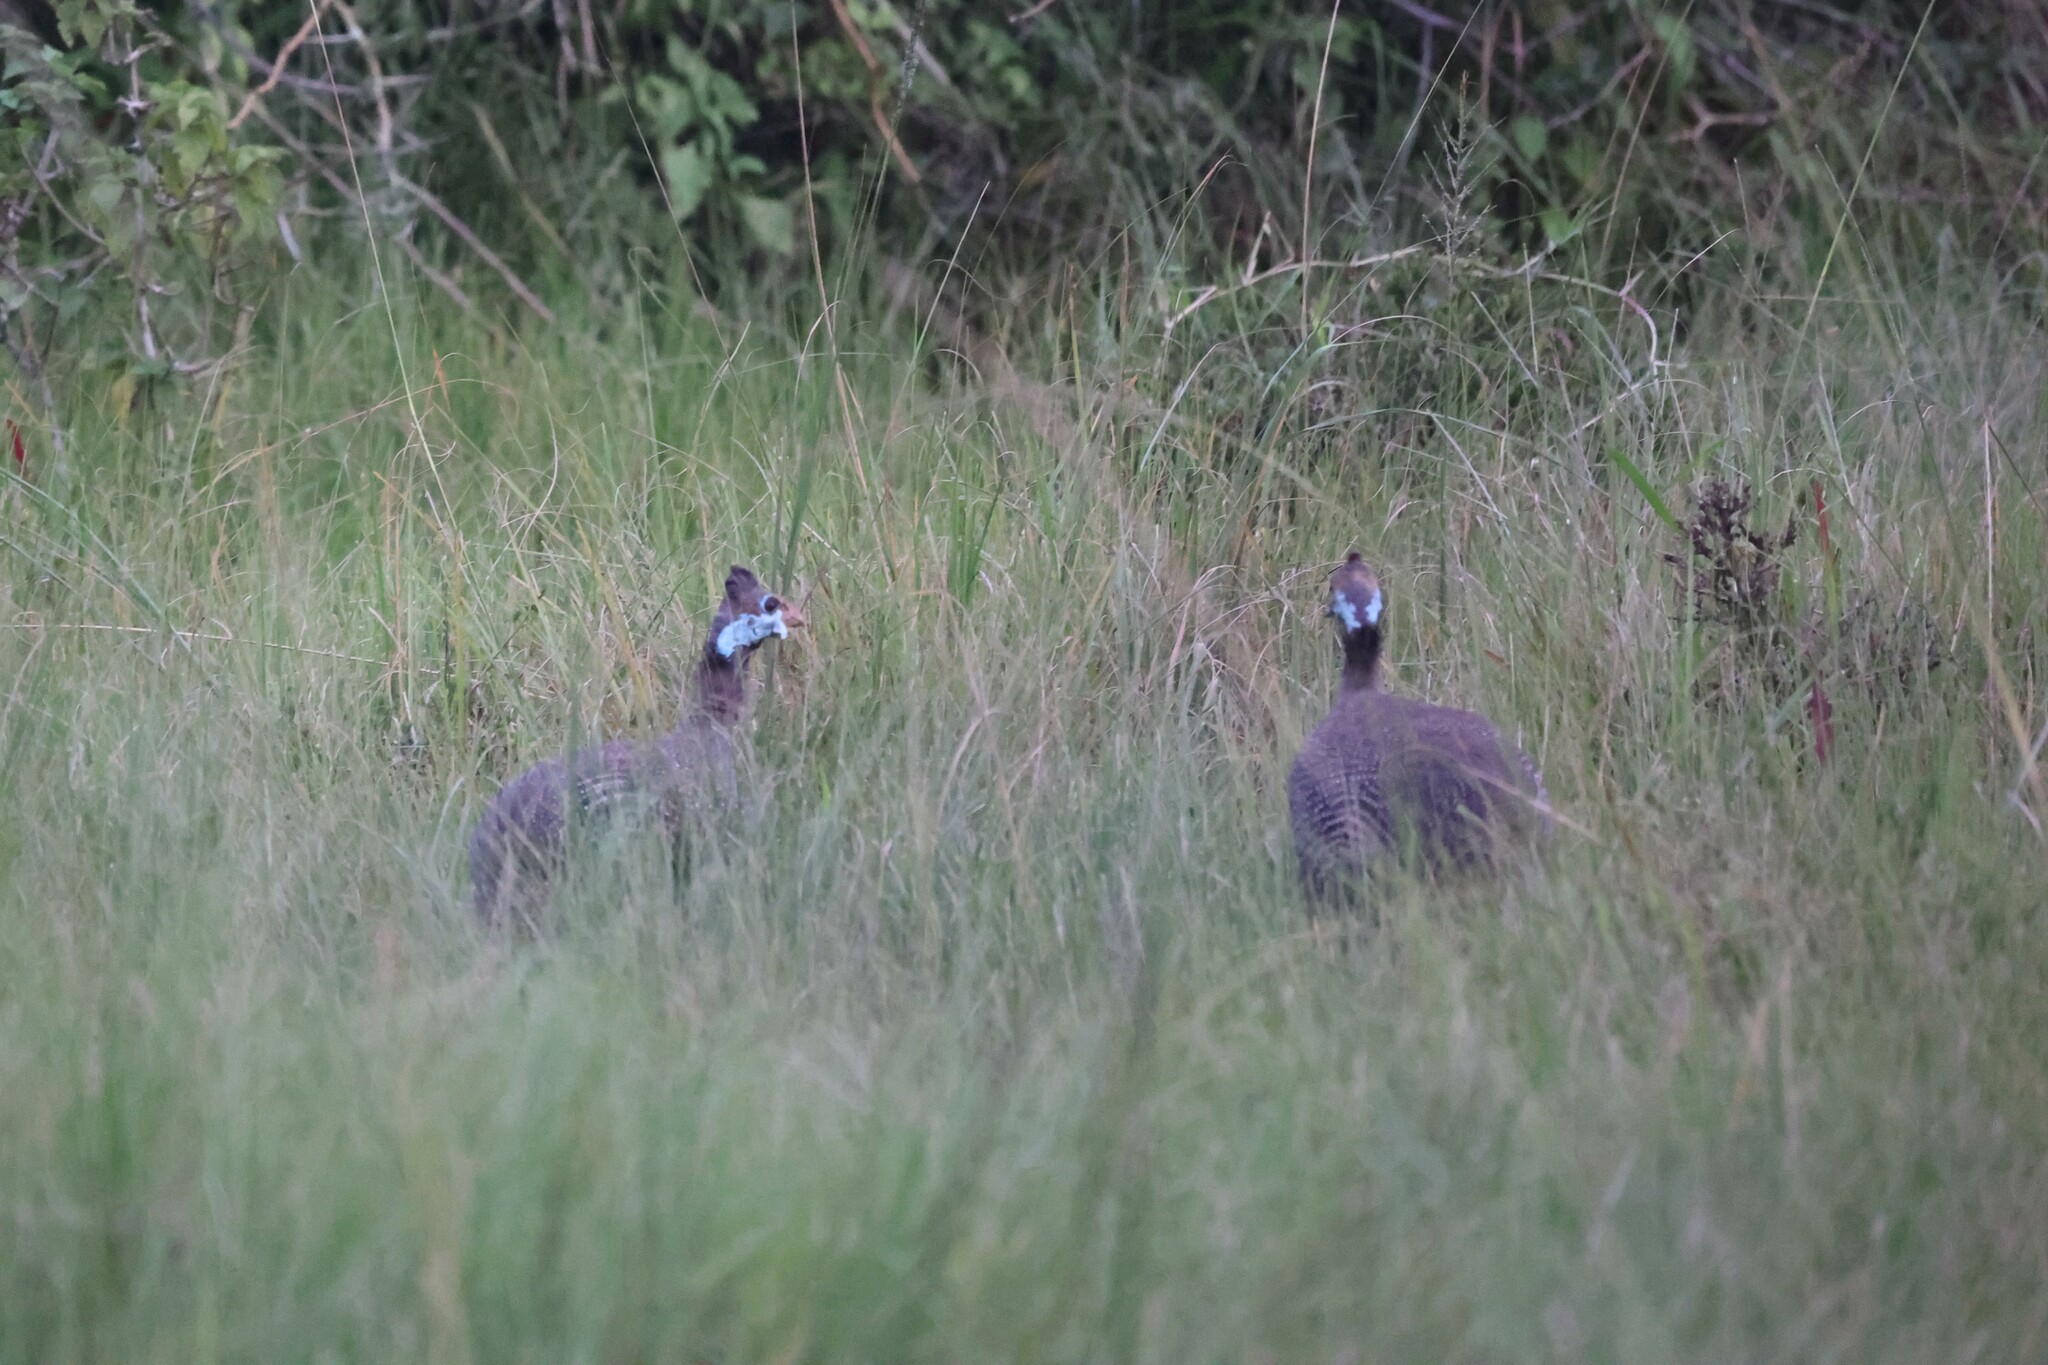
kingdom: Animalia
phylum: Chordata
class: Aves
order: Galliformes
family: Numididae
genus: Numida
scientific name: Numida meleagris
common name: Helmeted guineafowl
